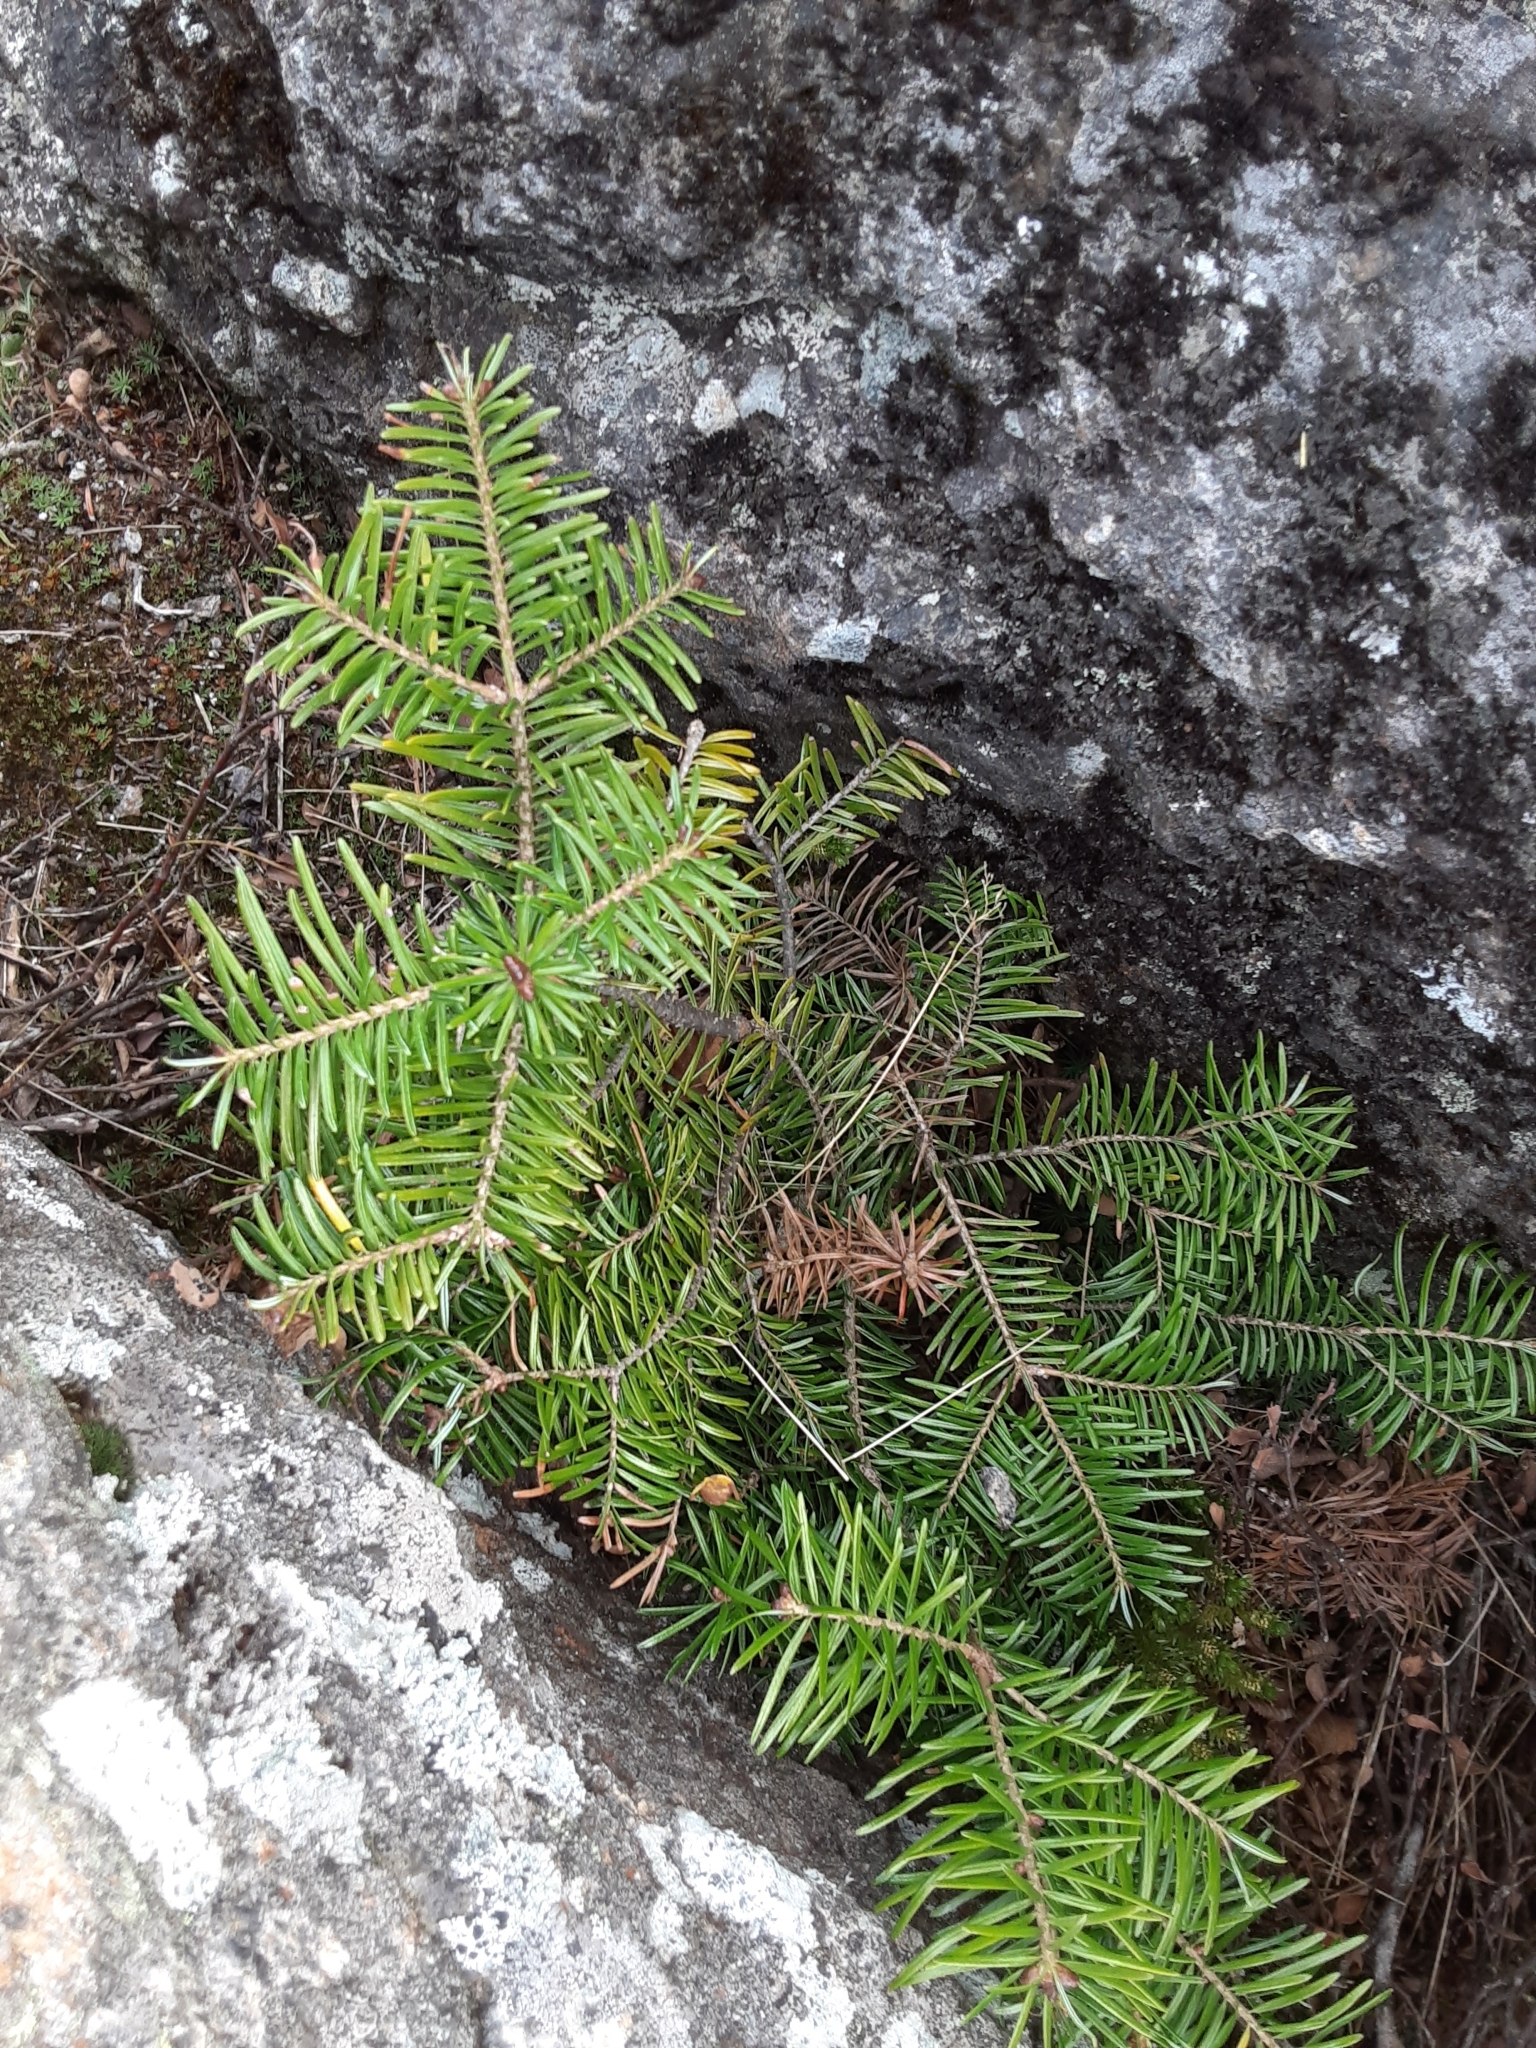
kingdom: Plantae
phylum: Tracheophyta
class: Pinopsida
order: Pinales
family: Pinaceae
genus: Abies
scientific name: Abies balsamea
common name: Balsam fir
